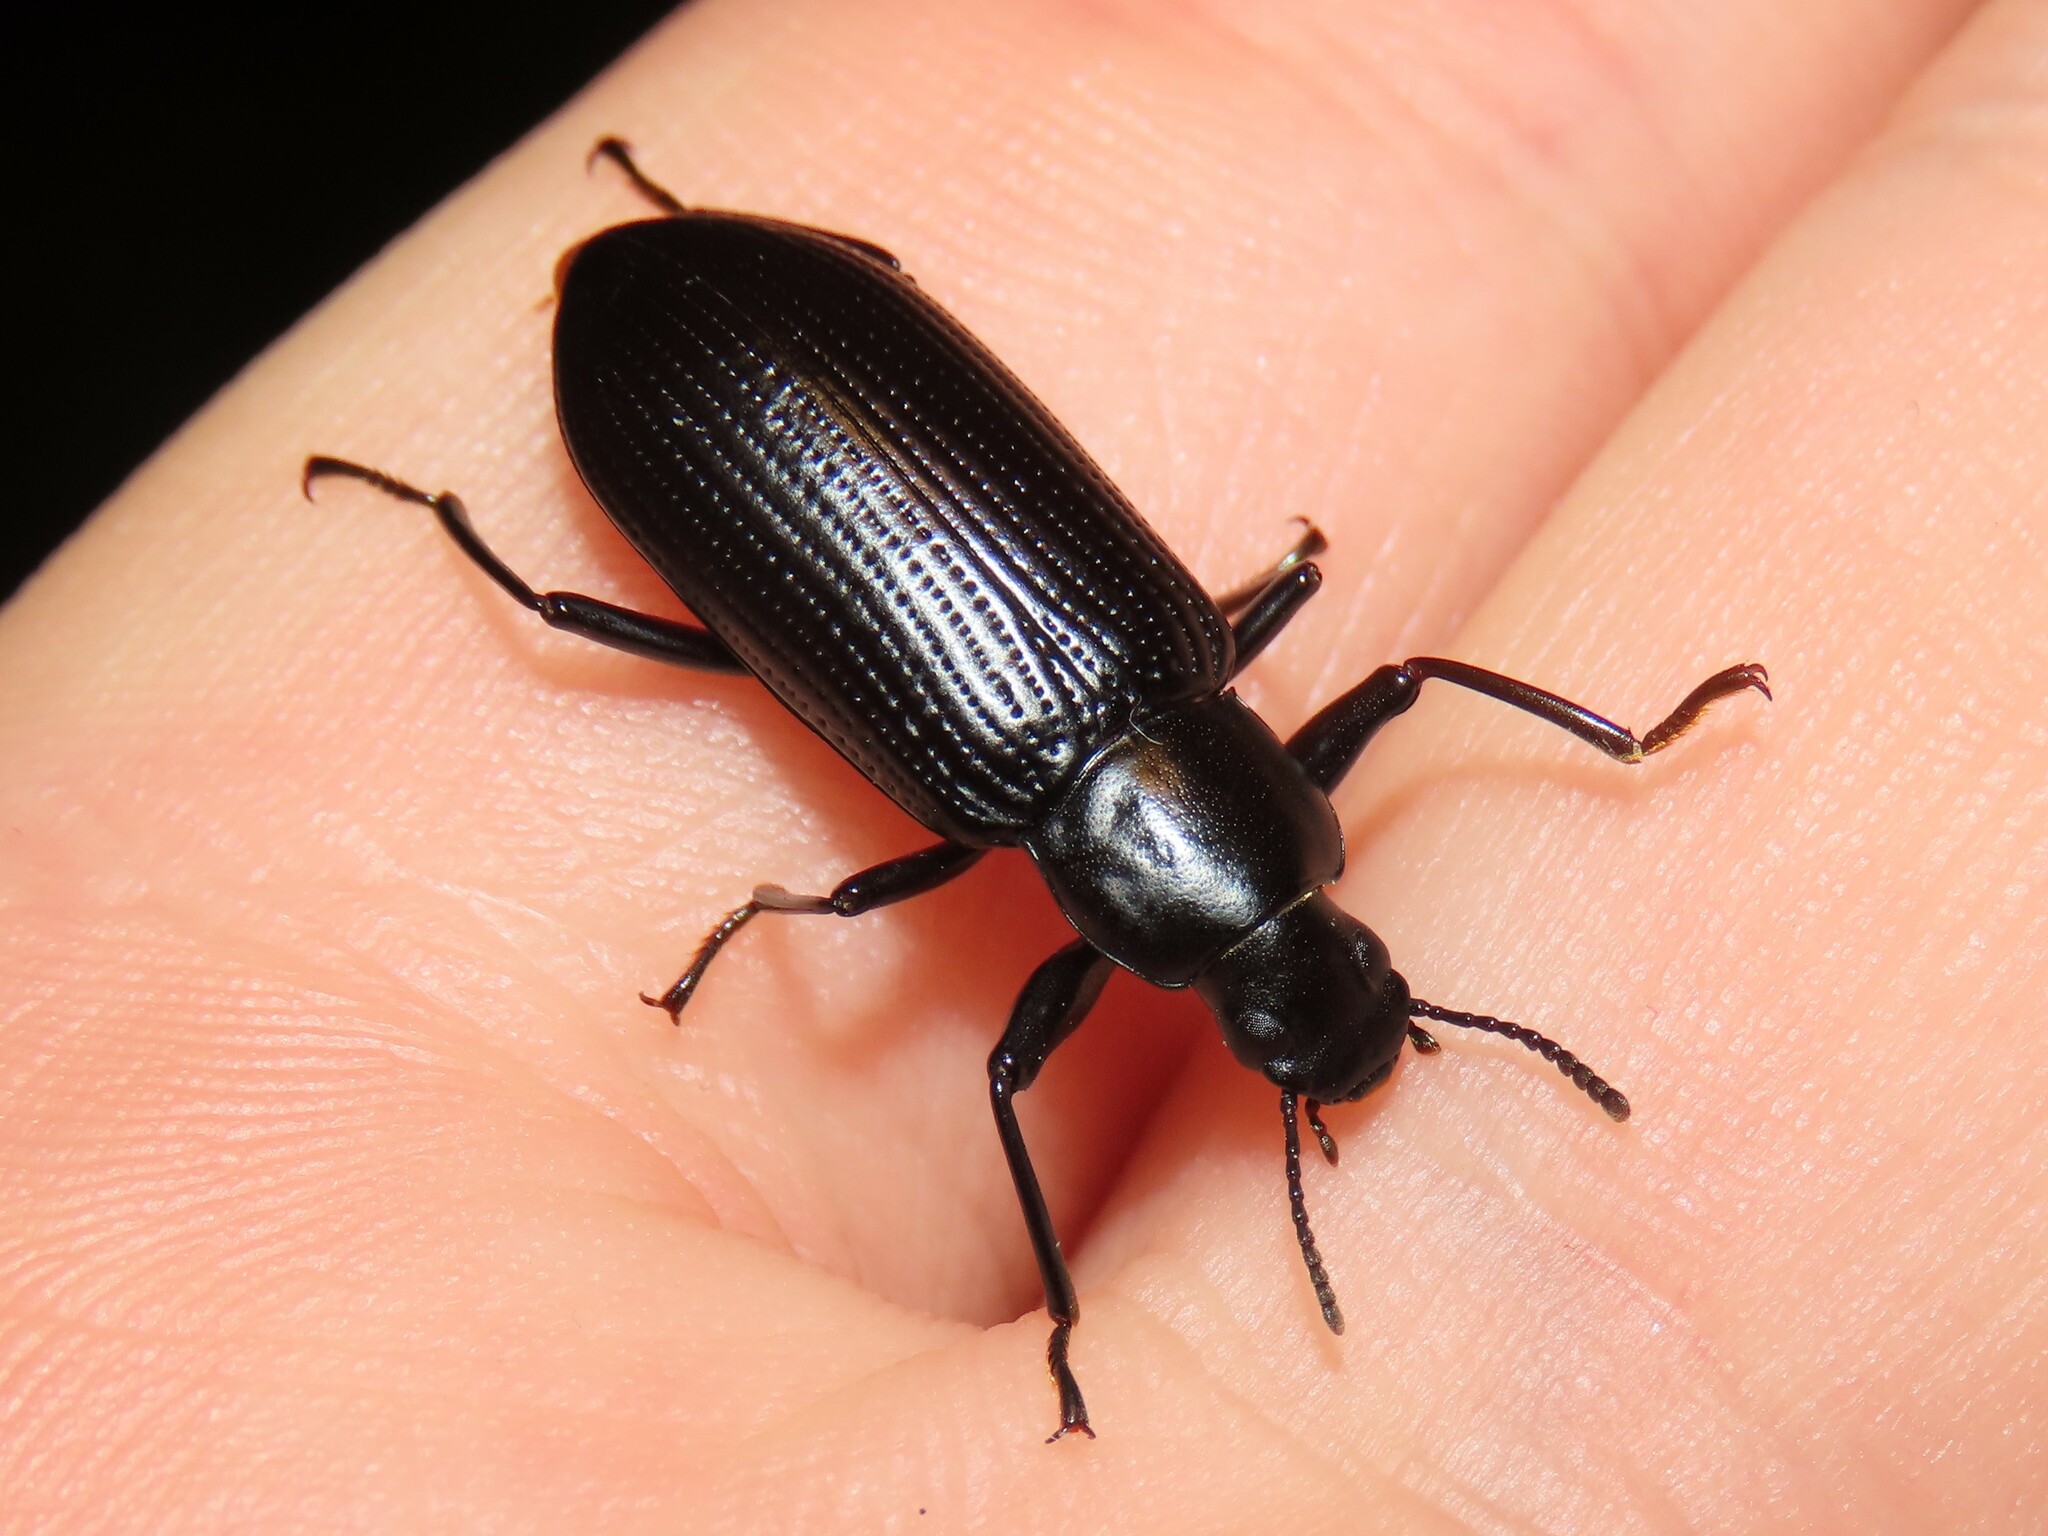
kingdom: Animalia
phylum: Arthropoda
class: Insecta
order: Coleoptera
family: Tenebrionidae
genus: Alobates
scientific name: Alobates pensylvanicus
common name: False mealworm beetle
